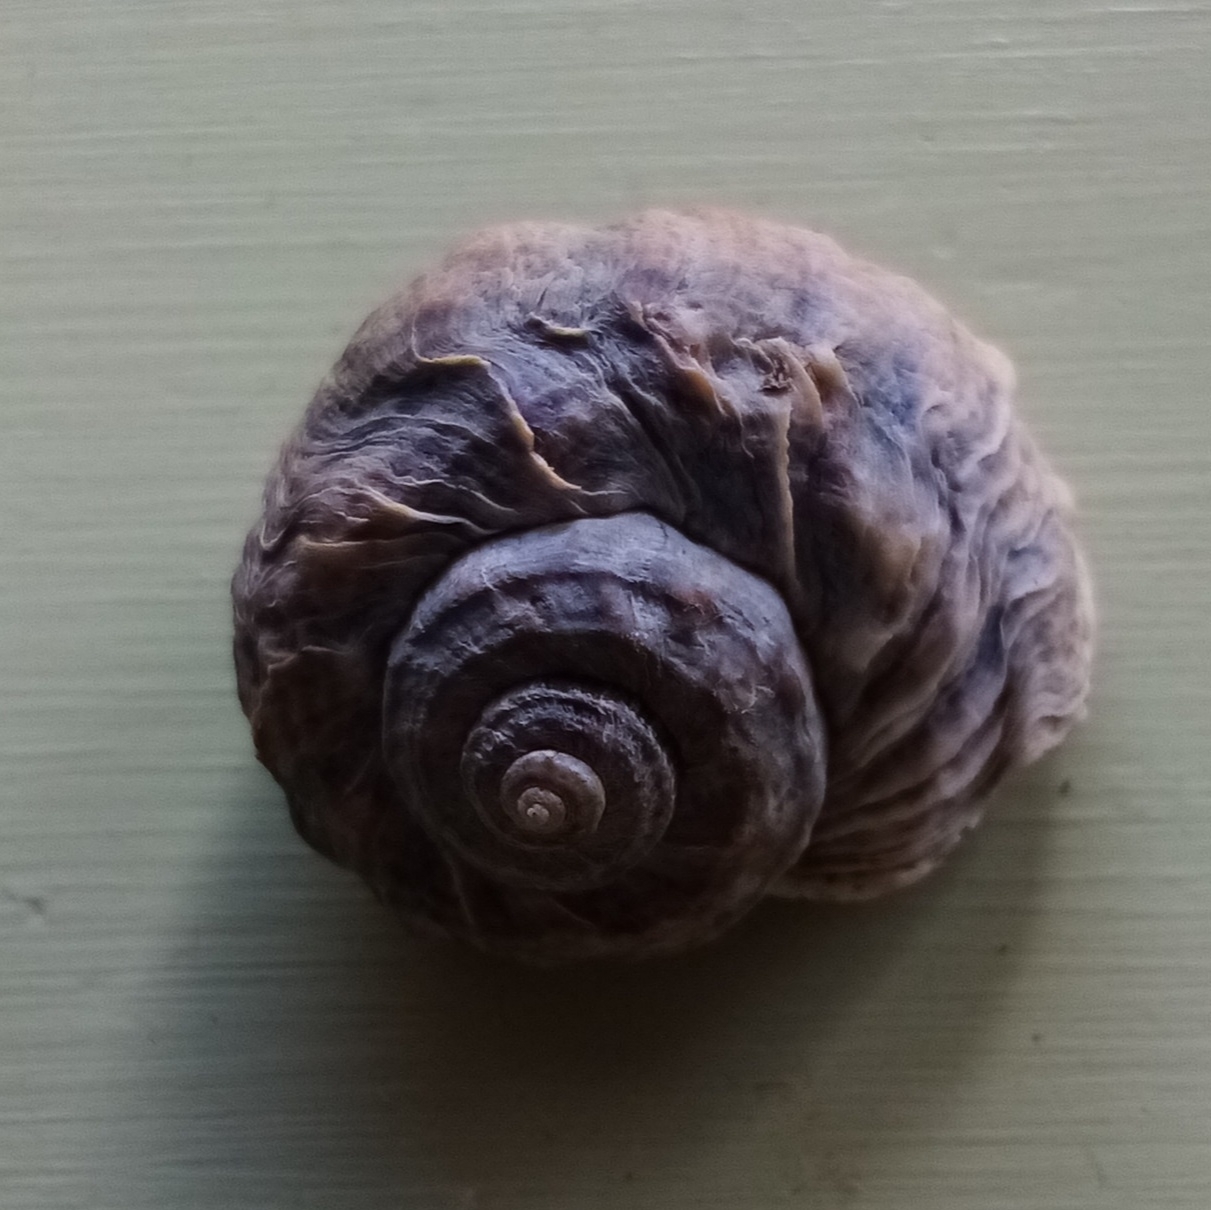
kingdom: Animalia
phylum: Mollusca
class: Gastropoda
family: Amphibolidae
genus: Amphibola
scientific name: Amphibola crenata
